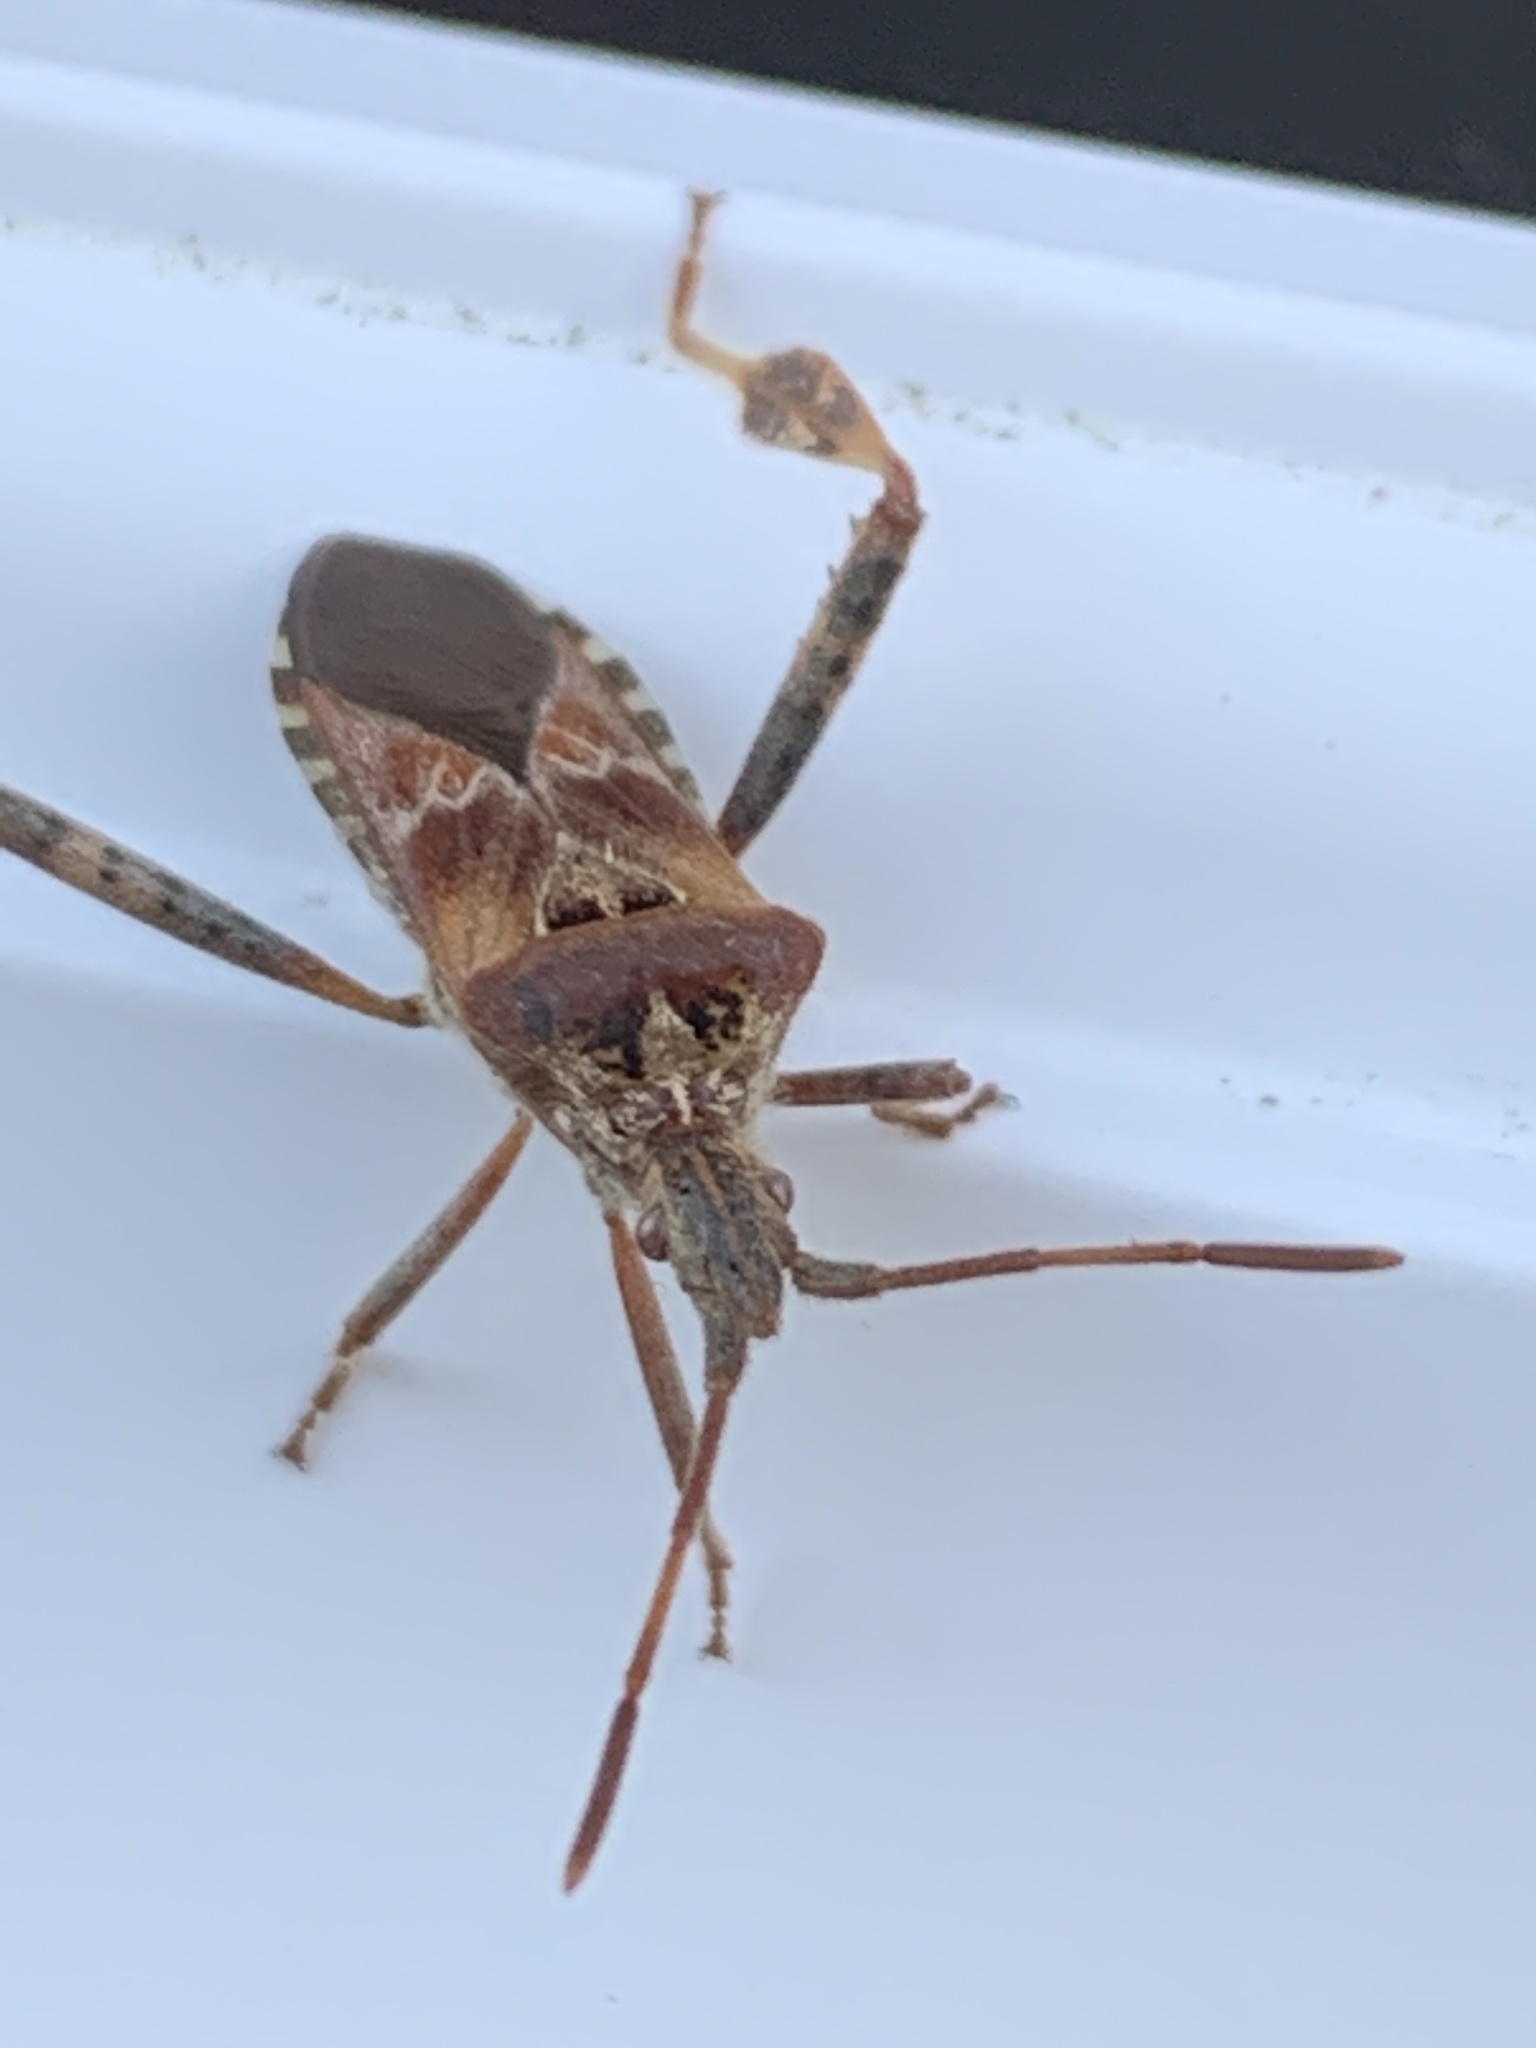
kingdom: Animalia
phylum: Arthropoda
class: Insecta
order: Hemiptera
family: Coreidae
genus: Leptoglossus
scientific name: Leptoglossus occidentalis
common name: Western conifer-seed bug
